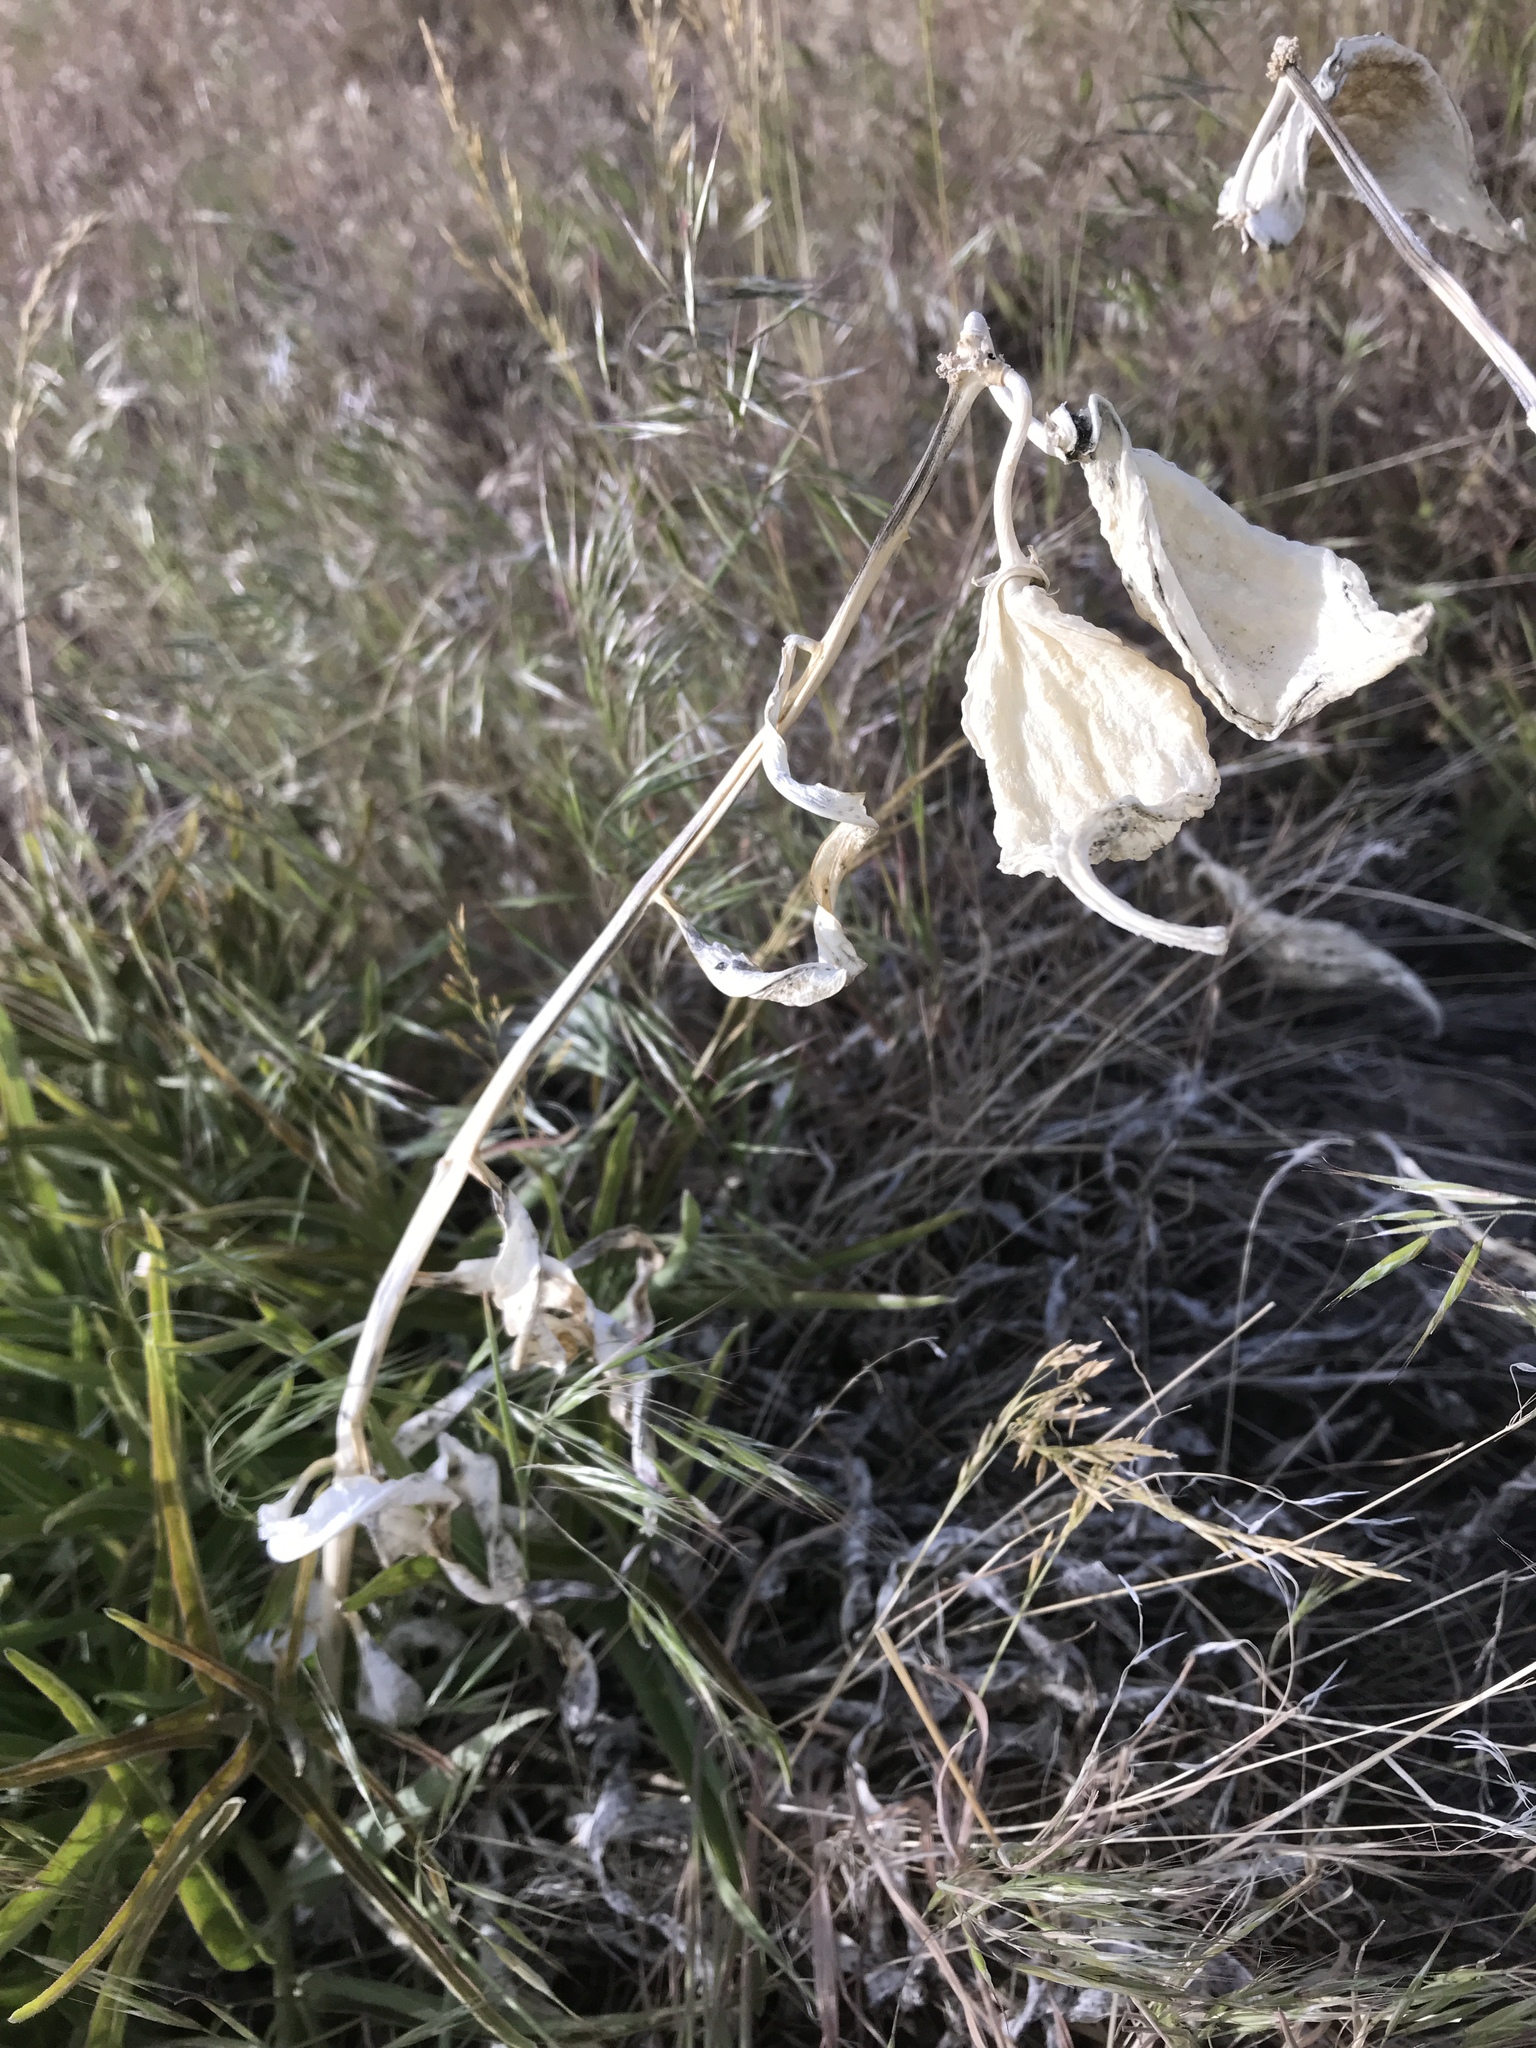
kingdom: Plantae
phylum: Tracheophyta
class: Magnoliopsida
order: Gentianales
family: Apocynaceae
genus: Asclepias
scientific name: Asclepias asperula
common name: Antelope horns
